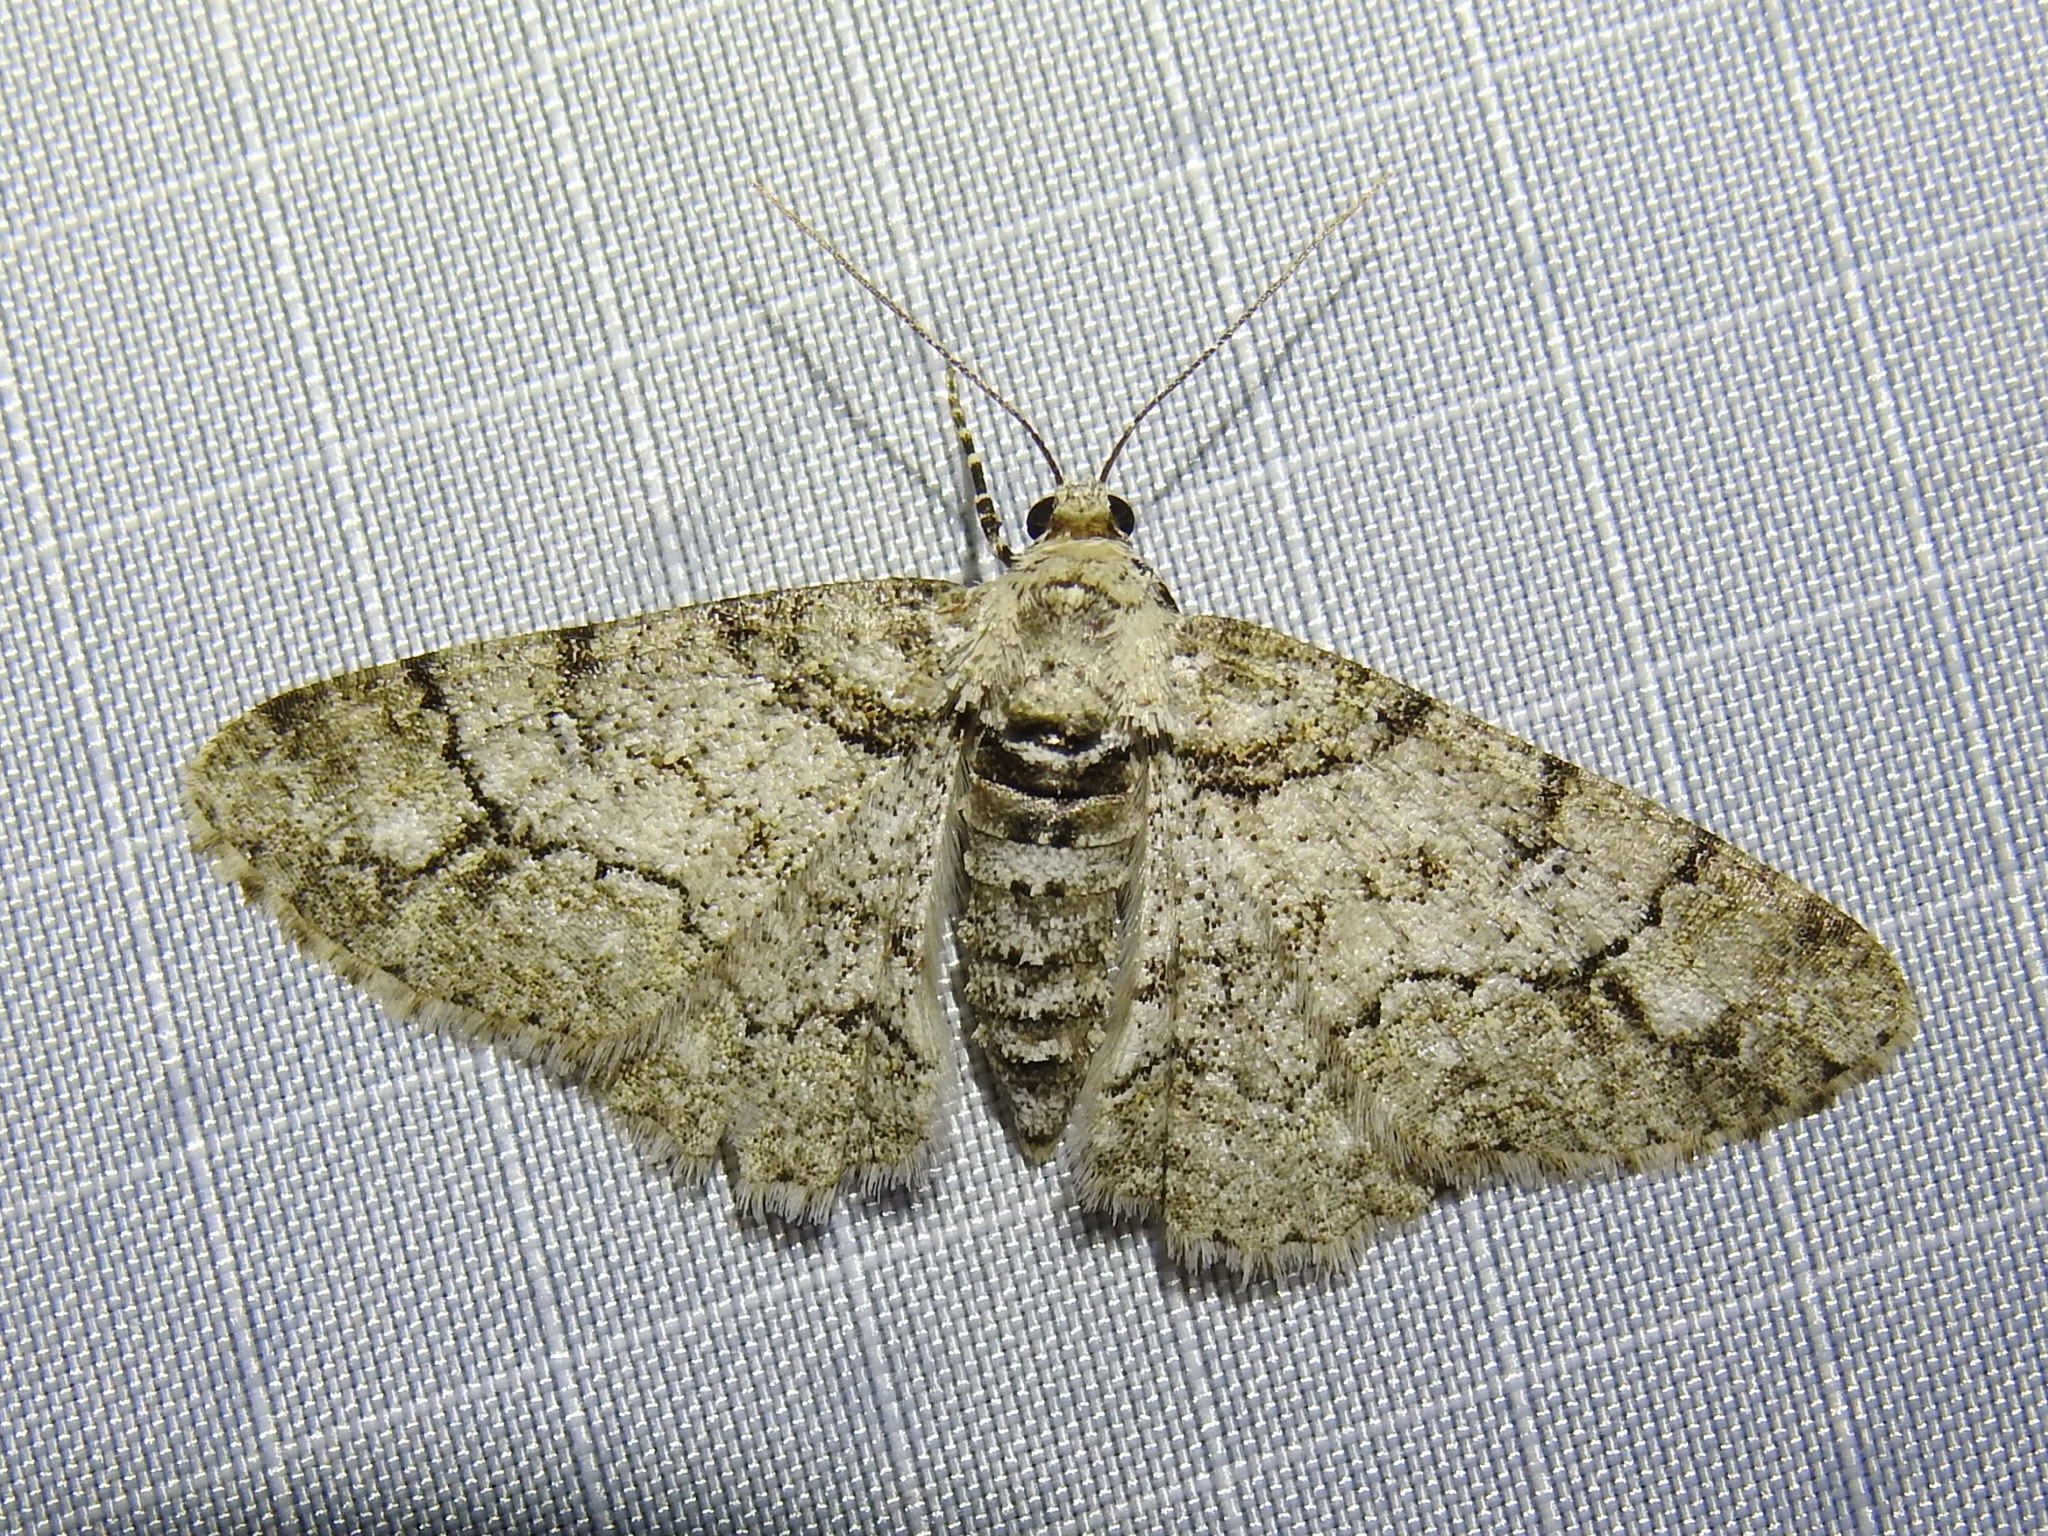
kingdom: Animalia
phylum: Arthropoda
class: Insecta
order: Lepidoptera
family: Geometridae
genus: Cleora
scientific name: Cleora sublunaria
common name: Double-lined gray
